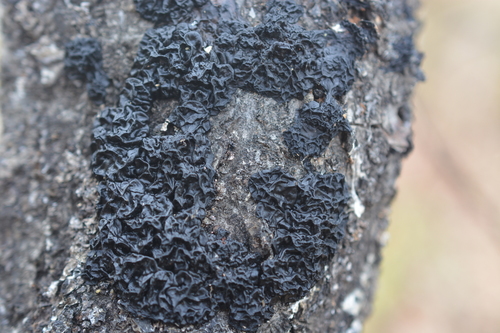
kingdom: Fungi
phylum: Basidiomycota
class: Agaricomycetes
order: Auriculariales
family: Auriculariaceae
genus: Exidia
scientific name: Exidia
